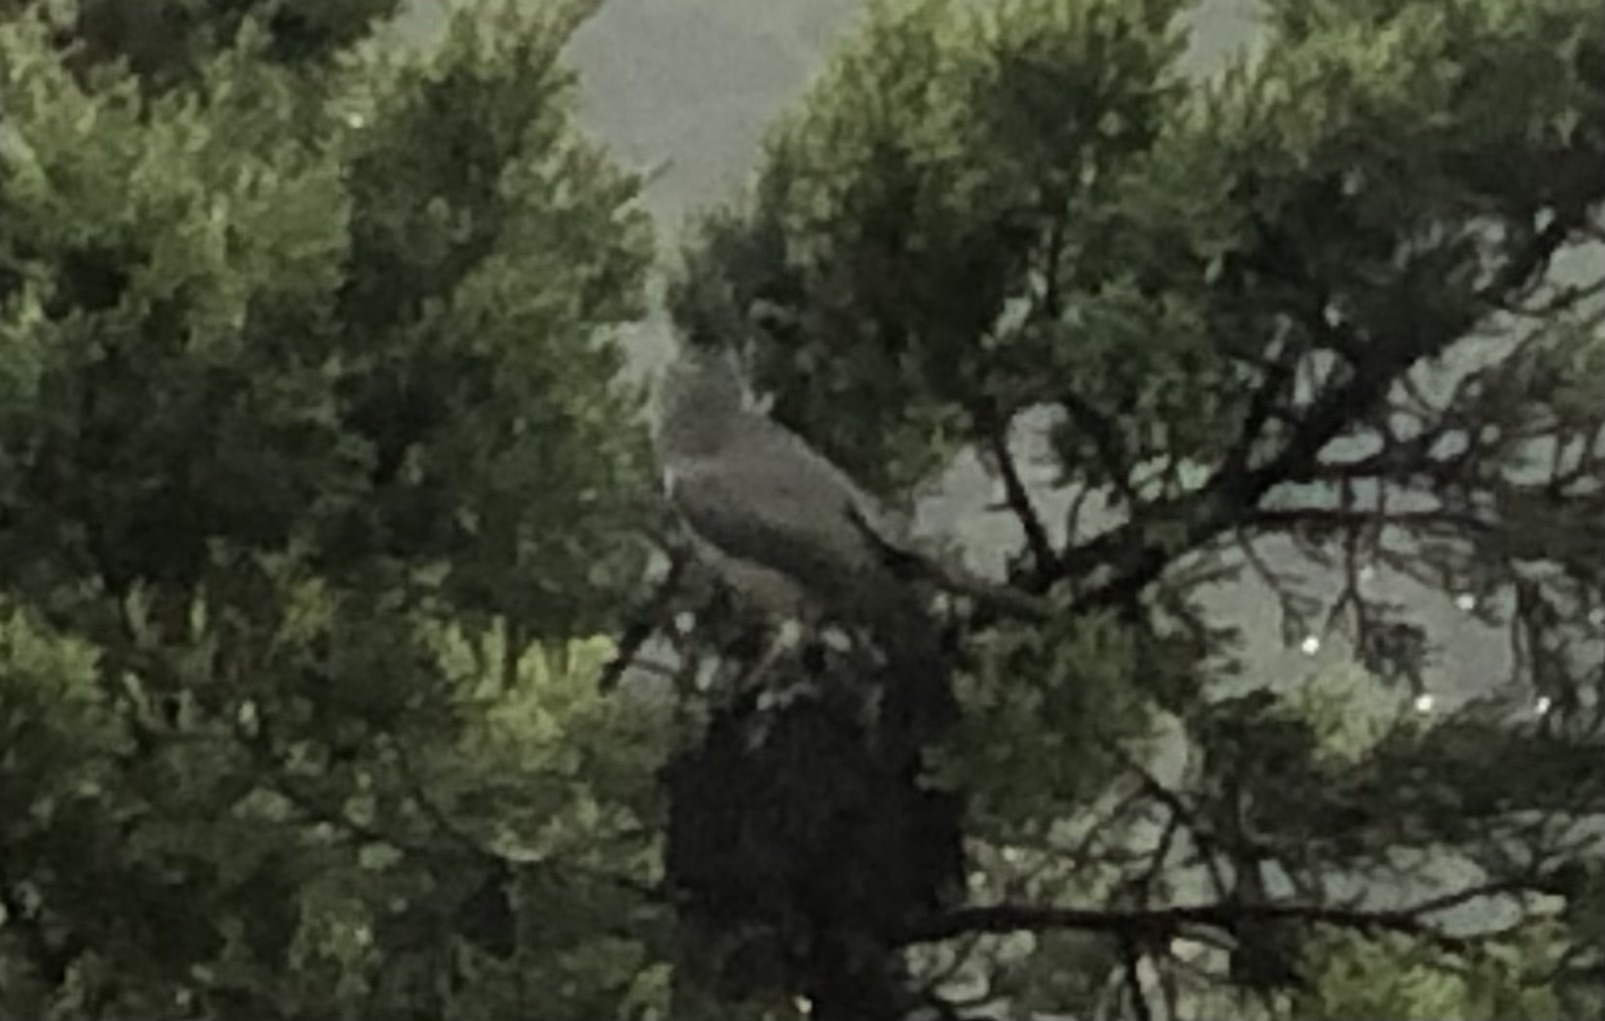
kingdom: Animalia
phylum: Chordata
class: Aves
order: Passeriformes
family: Paridae
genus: Baeolophus
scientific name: Baeolophus atricristatus
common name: Black-crested titmouse
